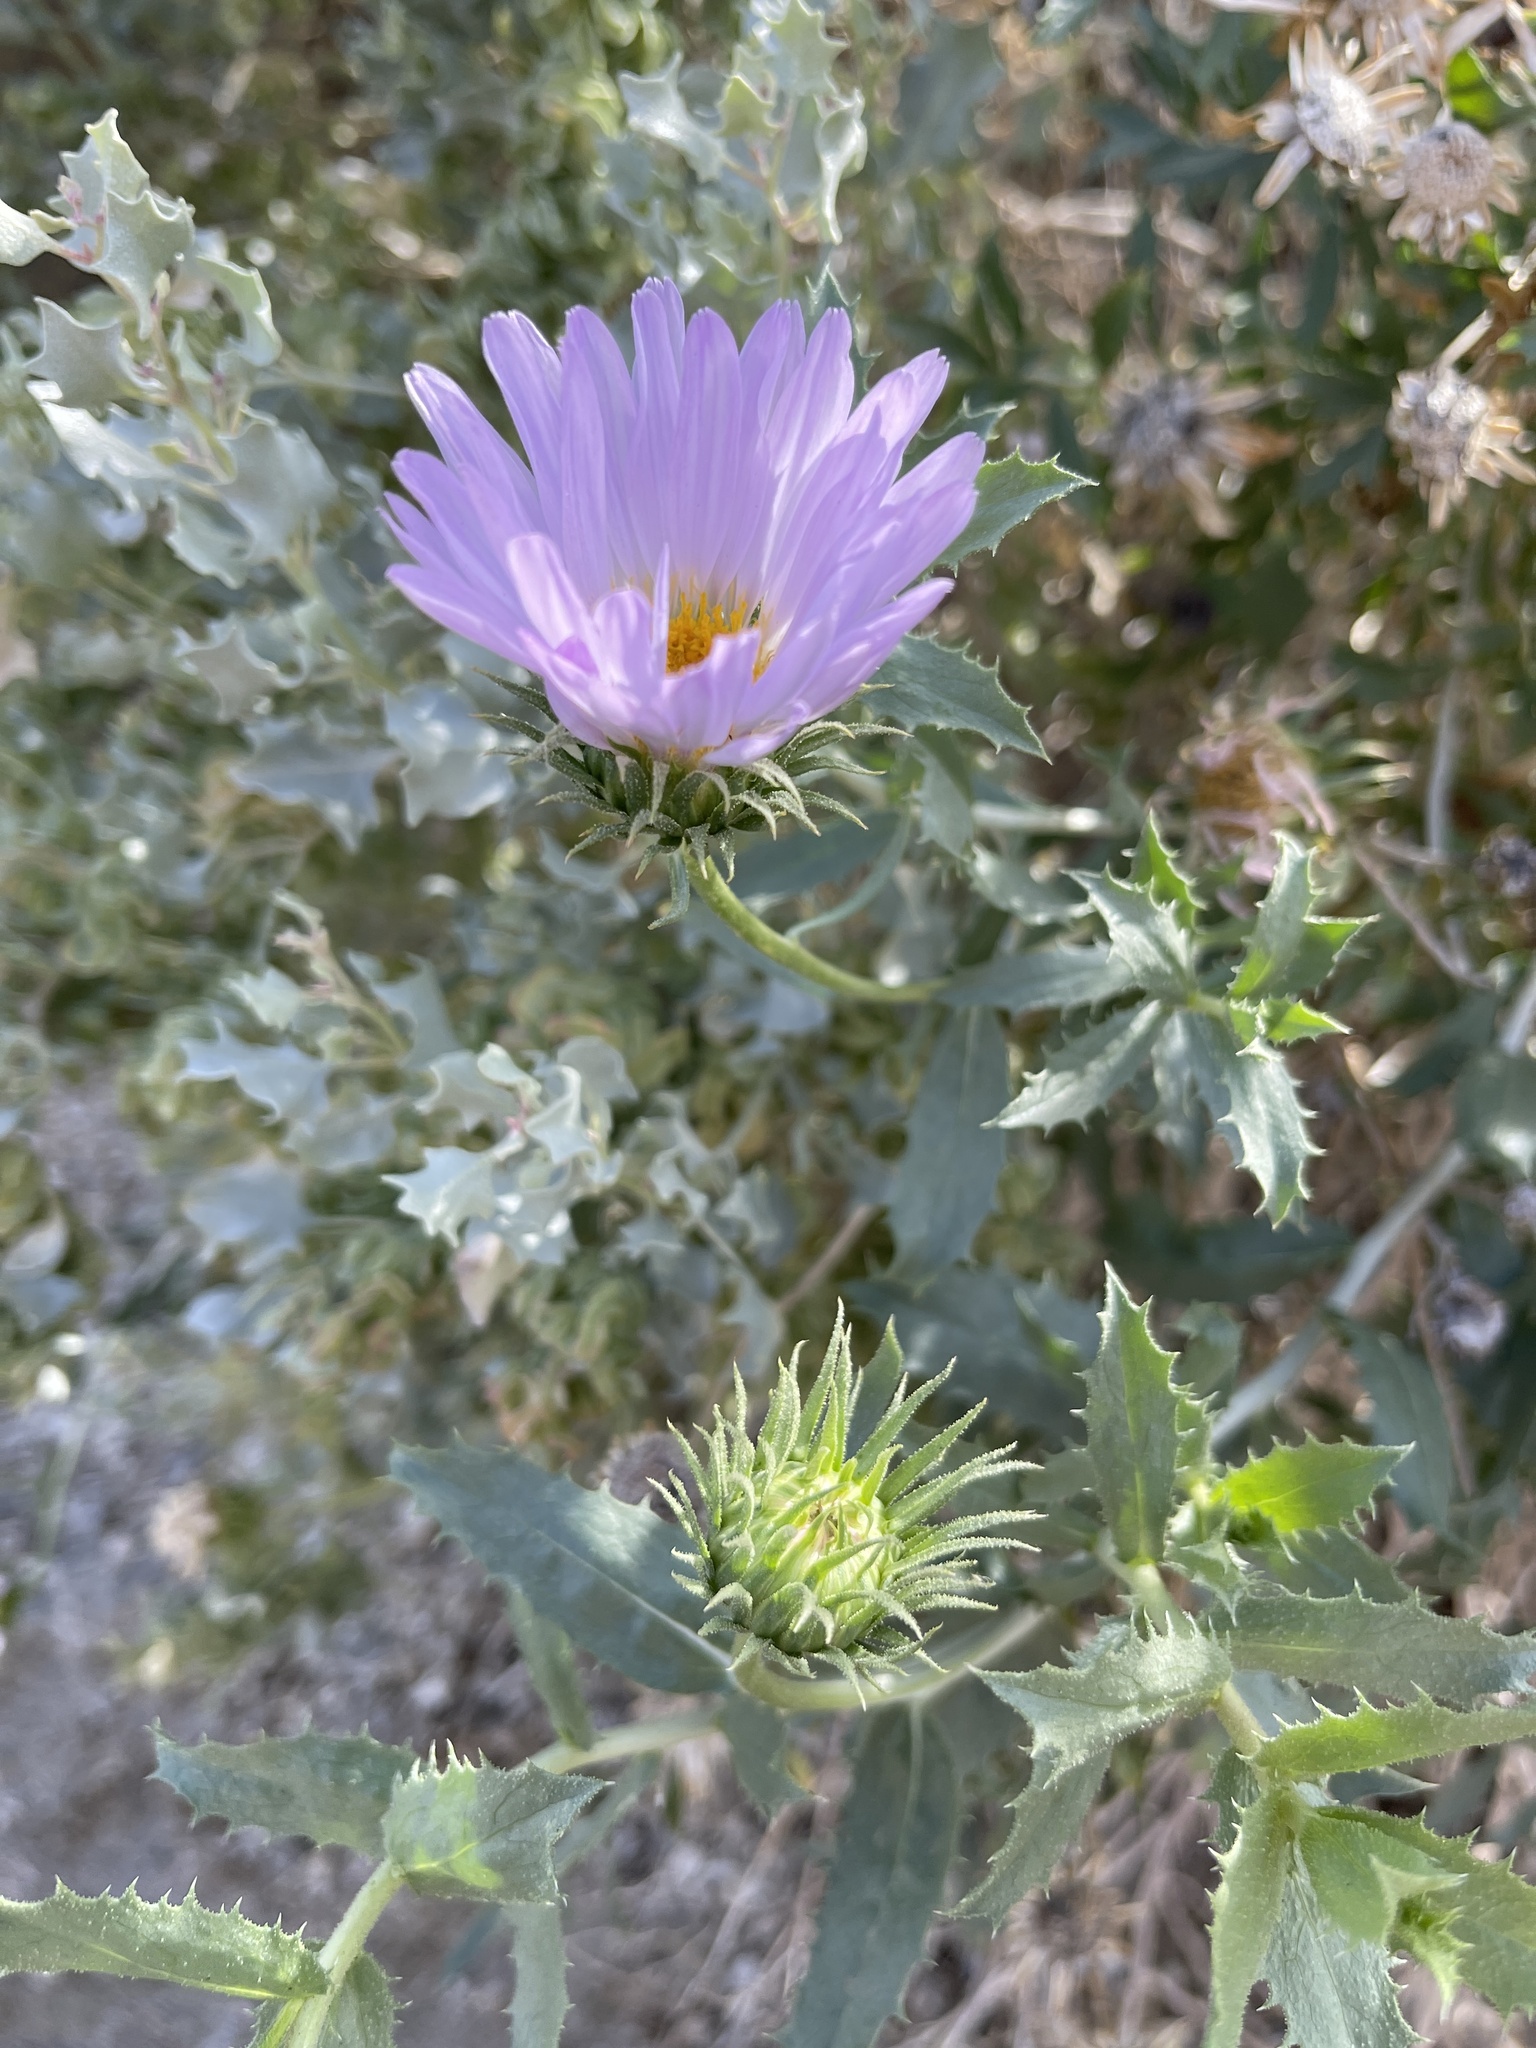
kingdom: Plantae
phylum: Tracheophyta
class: Magnoliopsida
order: Asterales
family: Asteraceae
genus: Xylorhiza
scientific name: Xylorhiza cognata
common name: Mecca woody-aster
